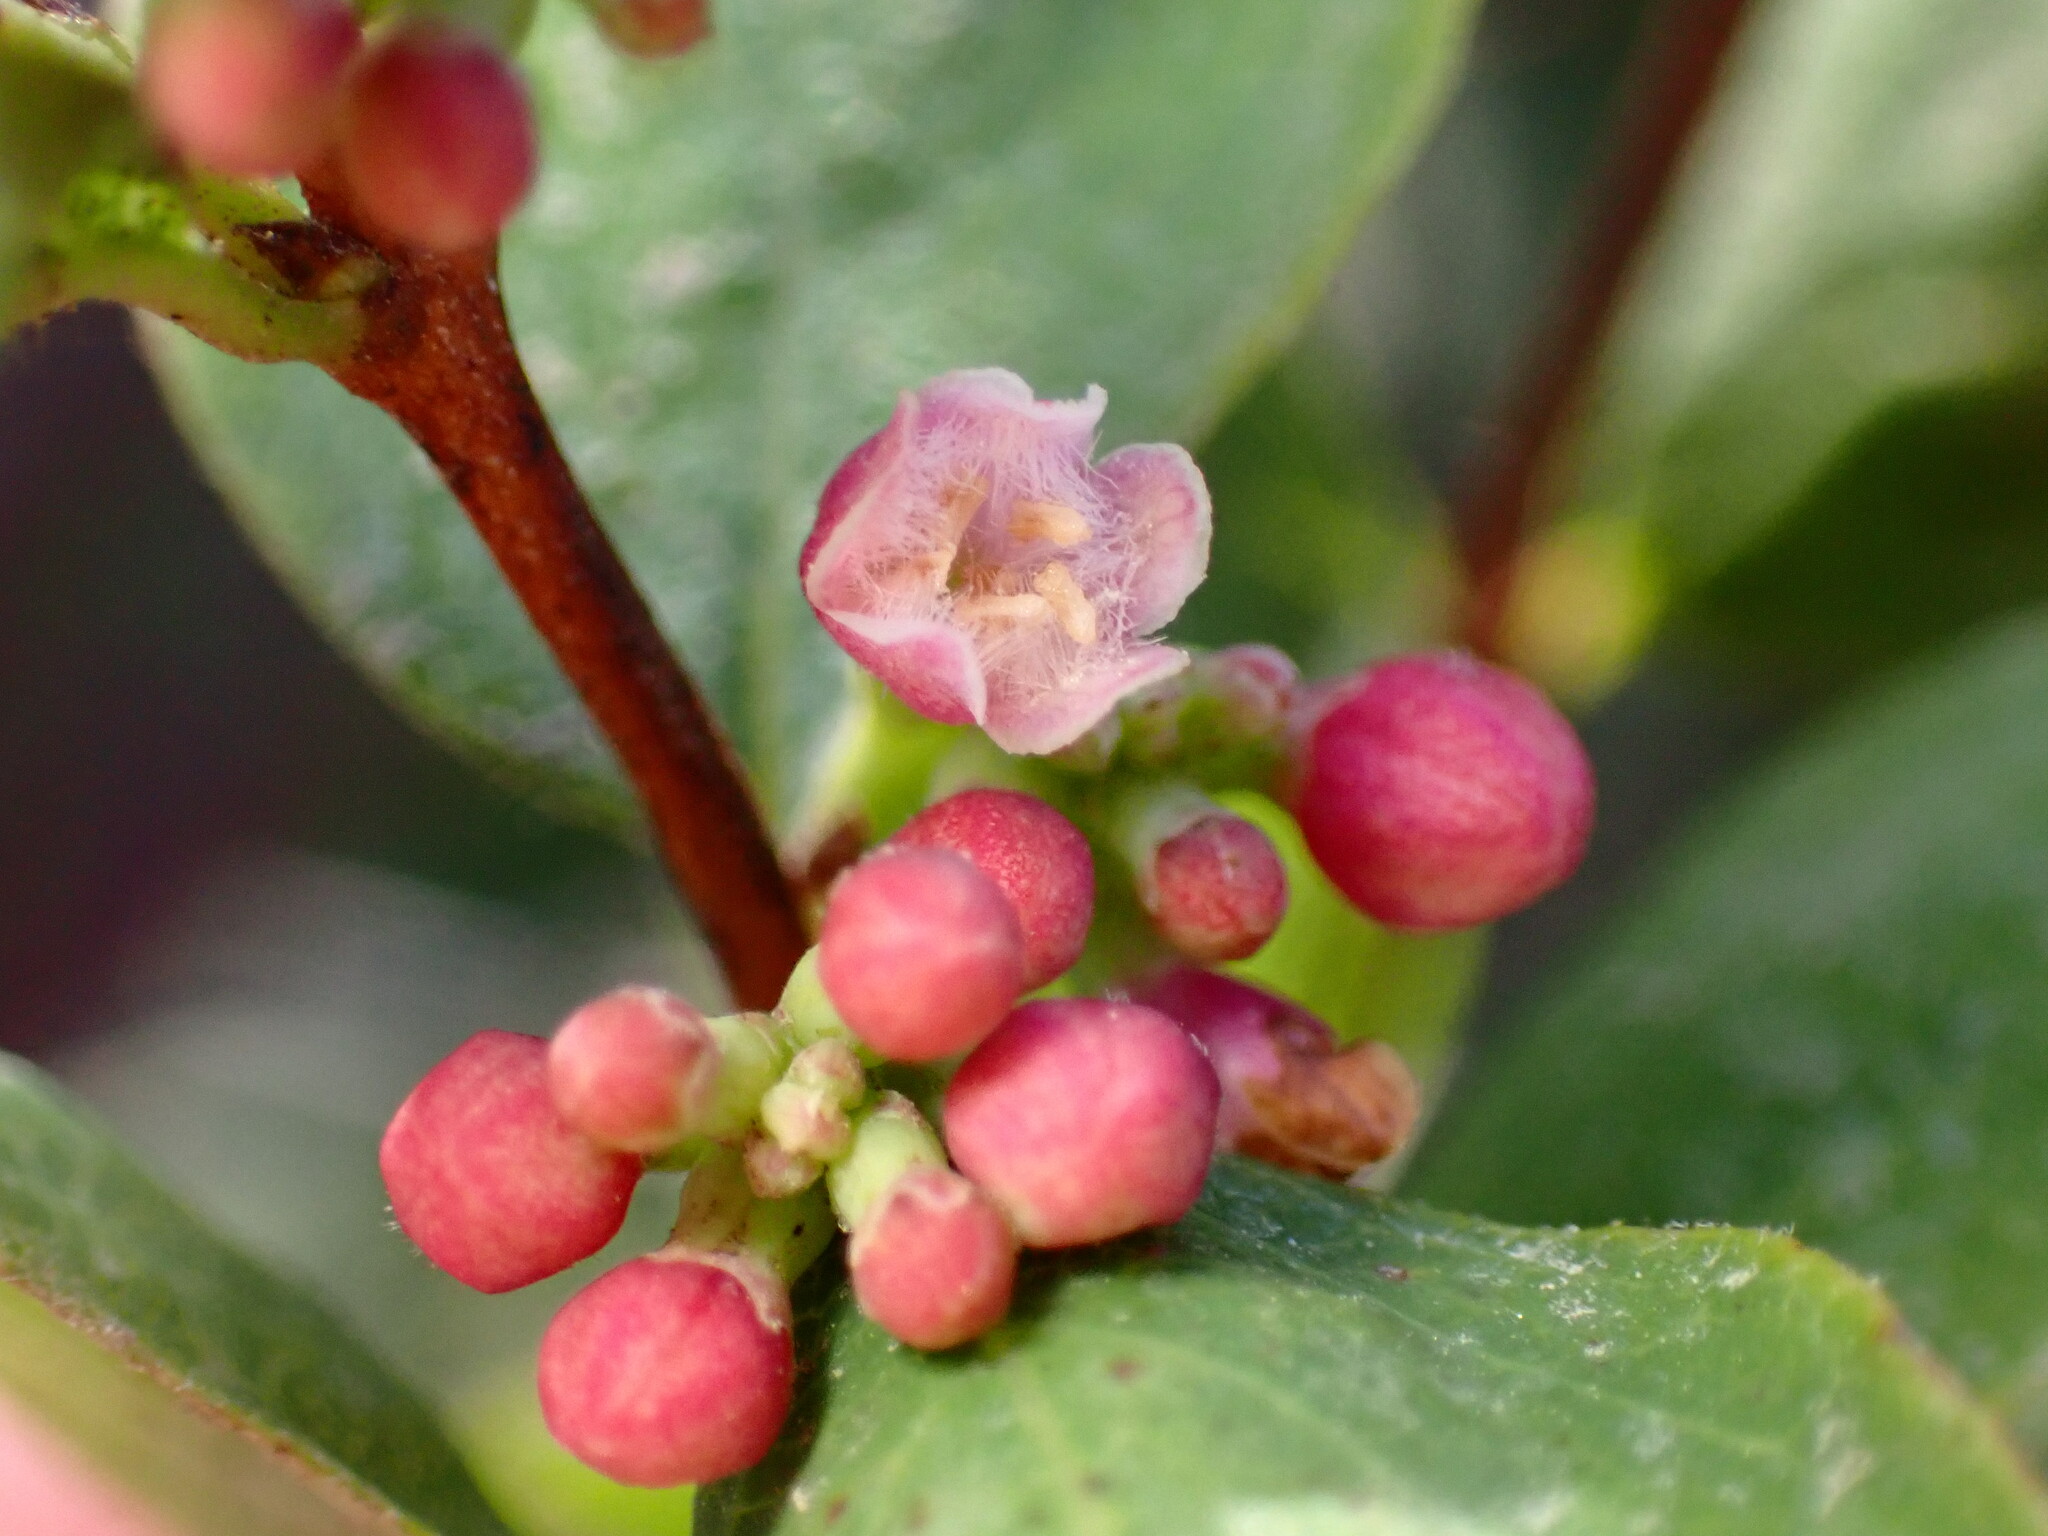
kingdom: Plantae
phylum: Tracheophyta
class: Magnoliopsida
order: Dipsacales
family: Caprifoliaceae
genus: Symphoricarpos
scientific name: Symphoricarpos albus
